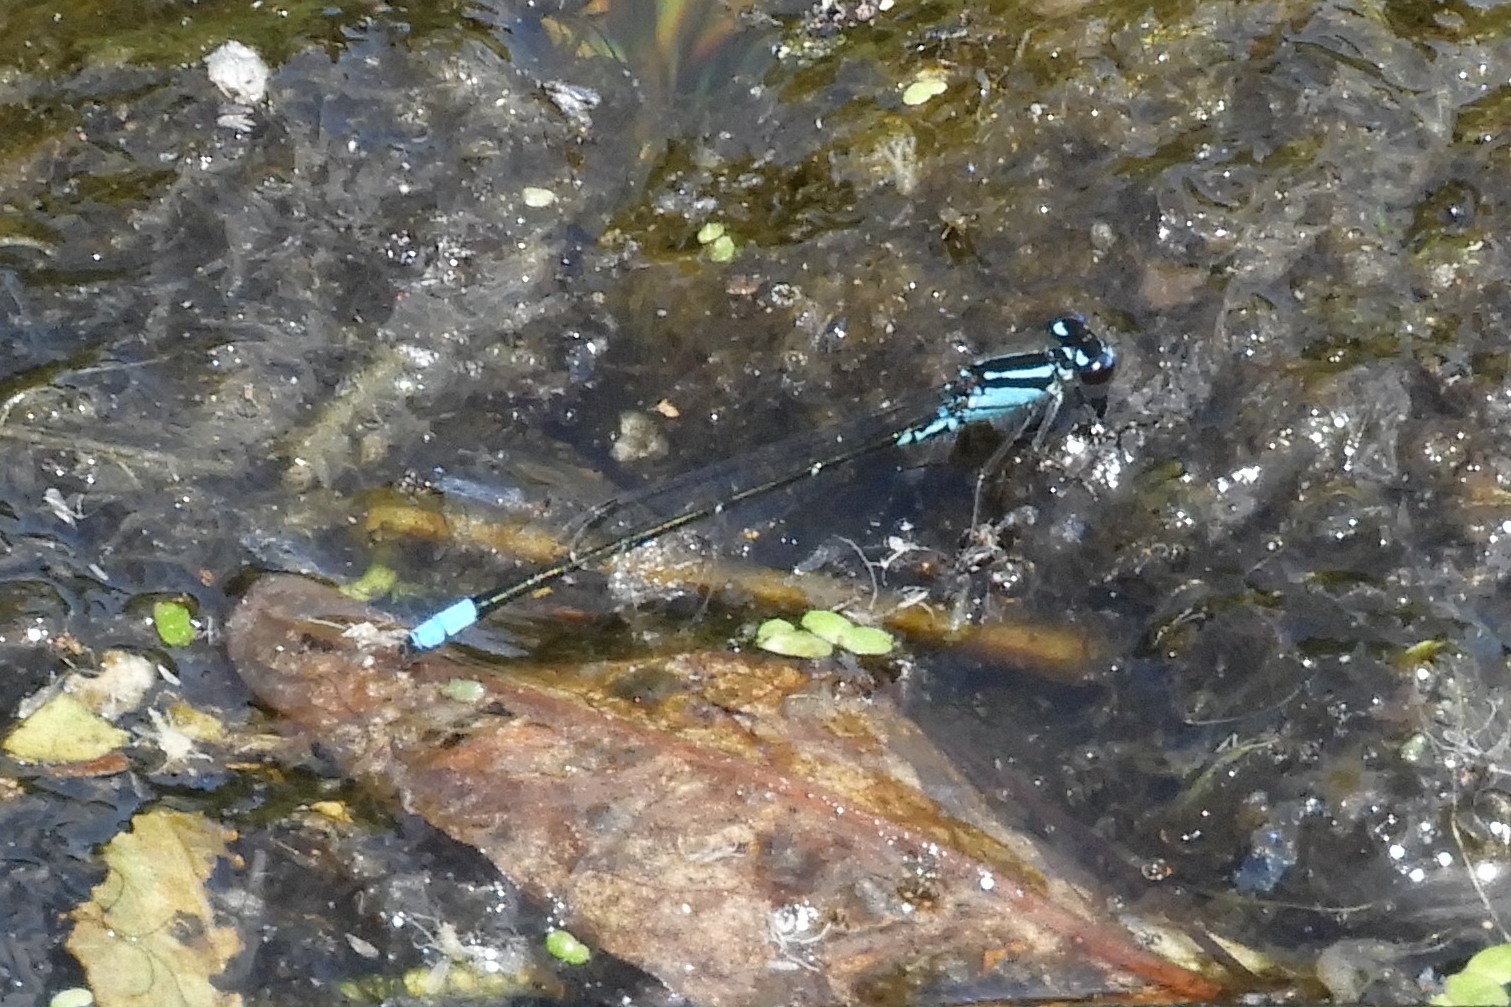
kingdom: Animalia
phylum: Arthropoda
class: Insecta
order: Odonata
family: Coenagrionidae
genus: Enallagma
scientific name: Enallagma geminatum
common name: Skimming bluet
